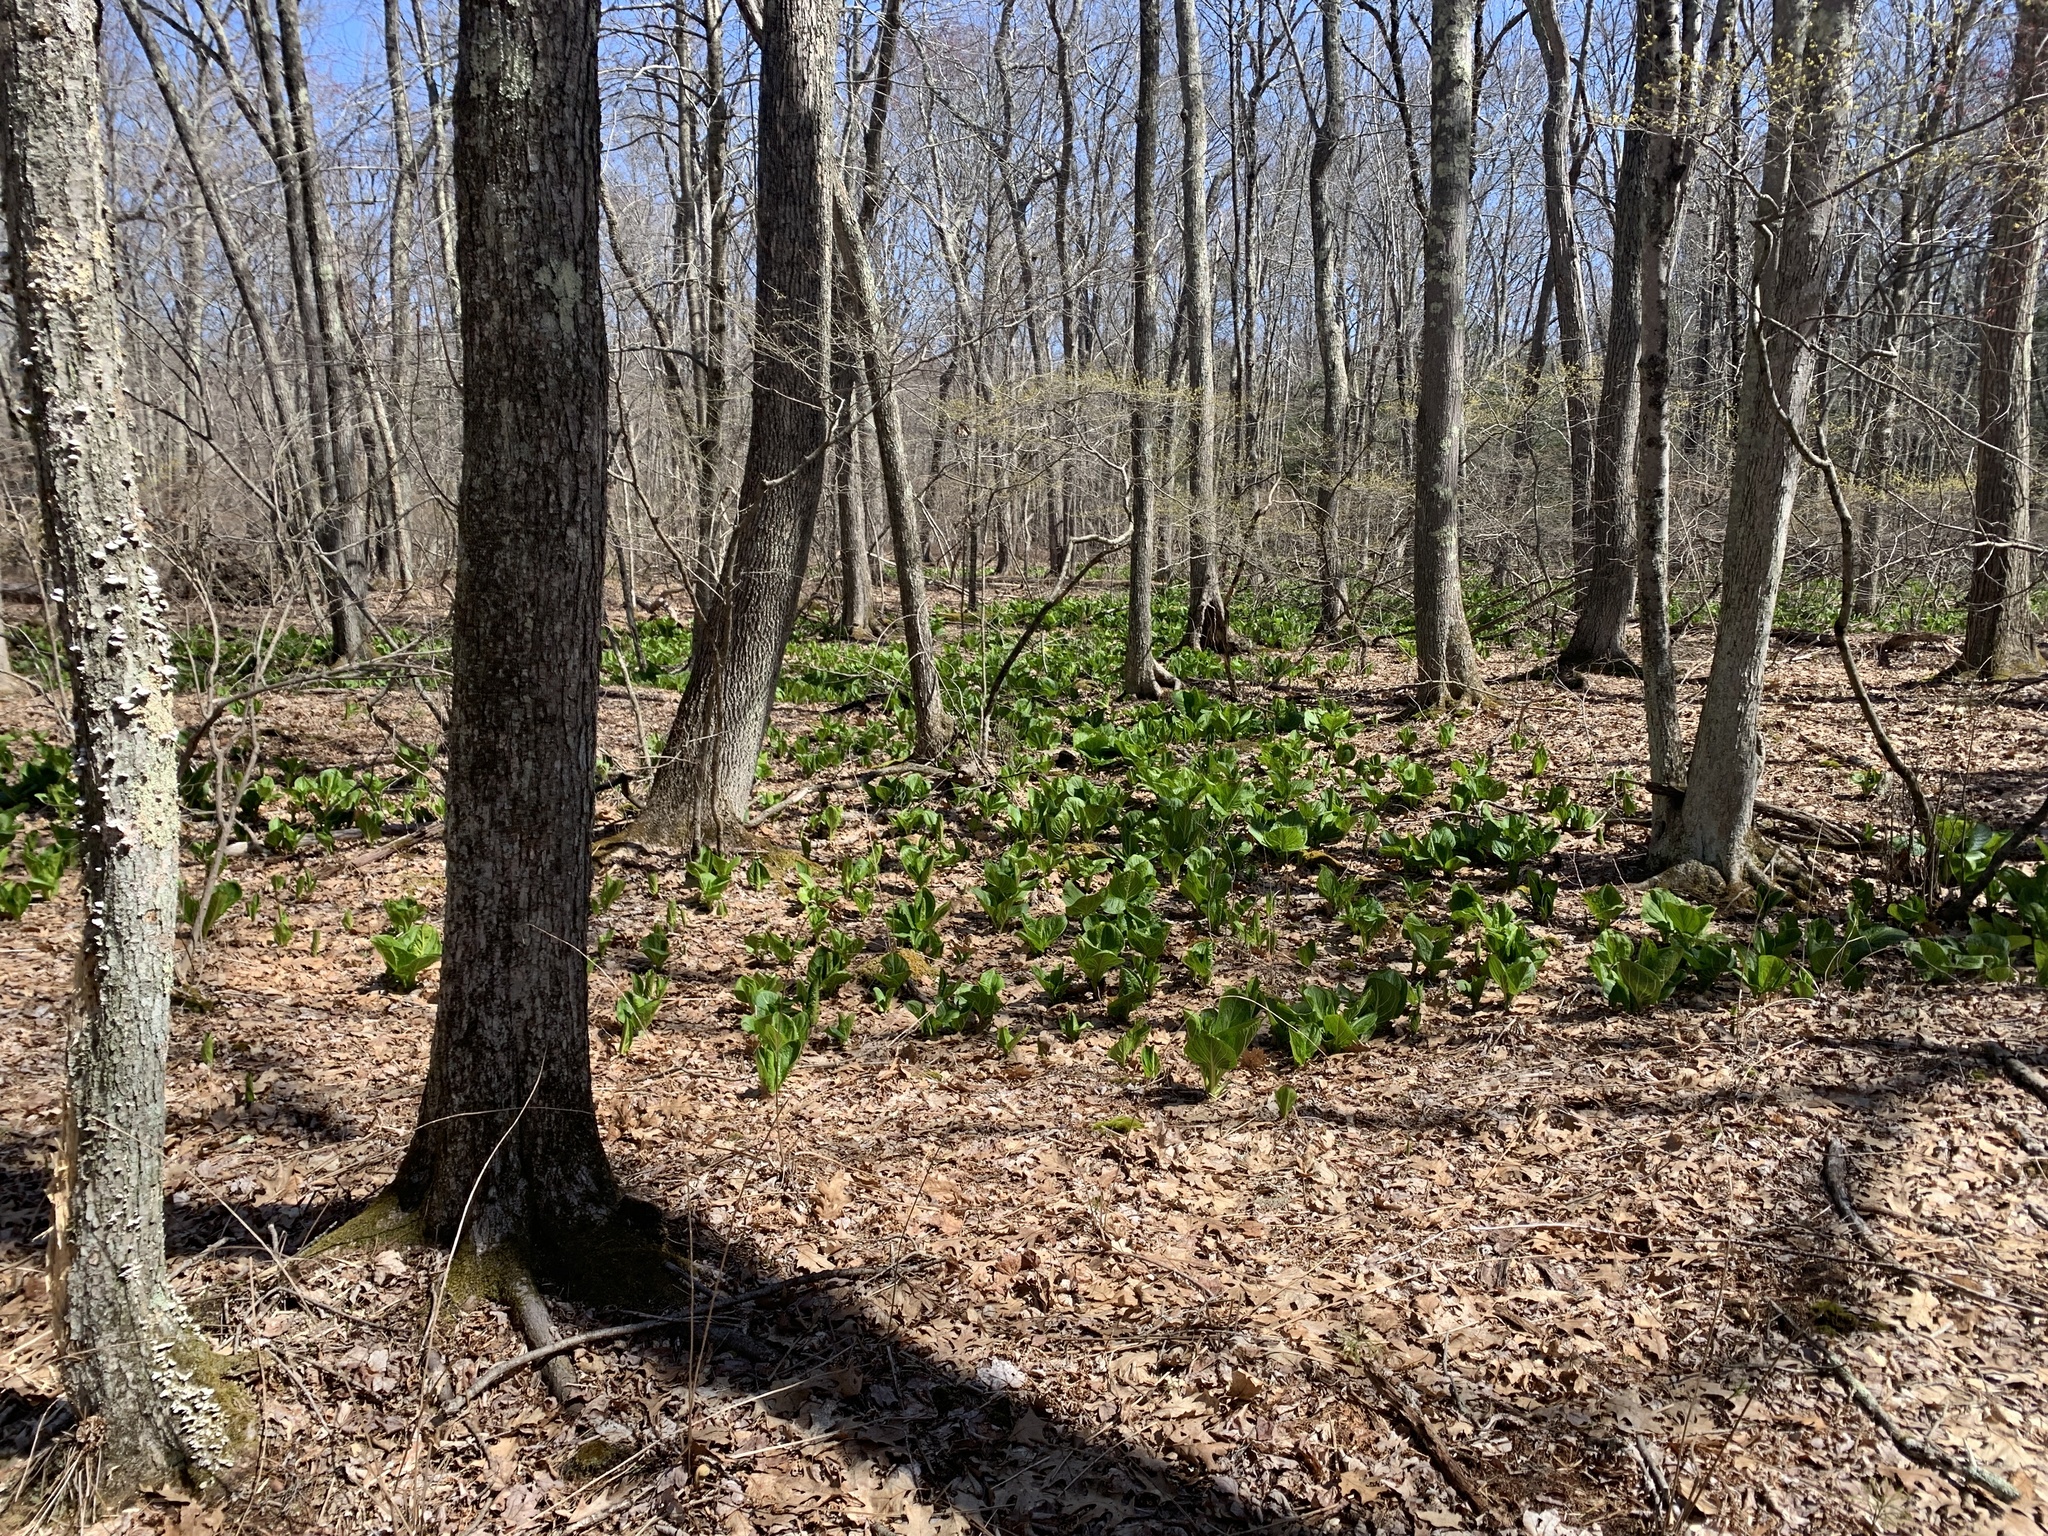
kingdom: Plantae
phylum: Tracheophyta
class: Liliopsida
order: Alismatales
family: Araceae
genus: Symplocarpus
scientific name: Symplocarpus foetidus
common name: Eastern skunk cabbage
